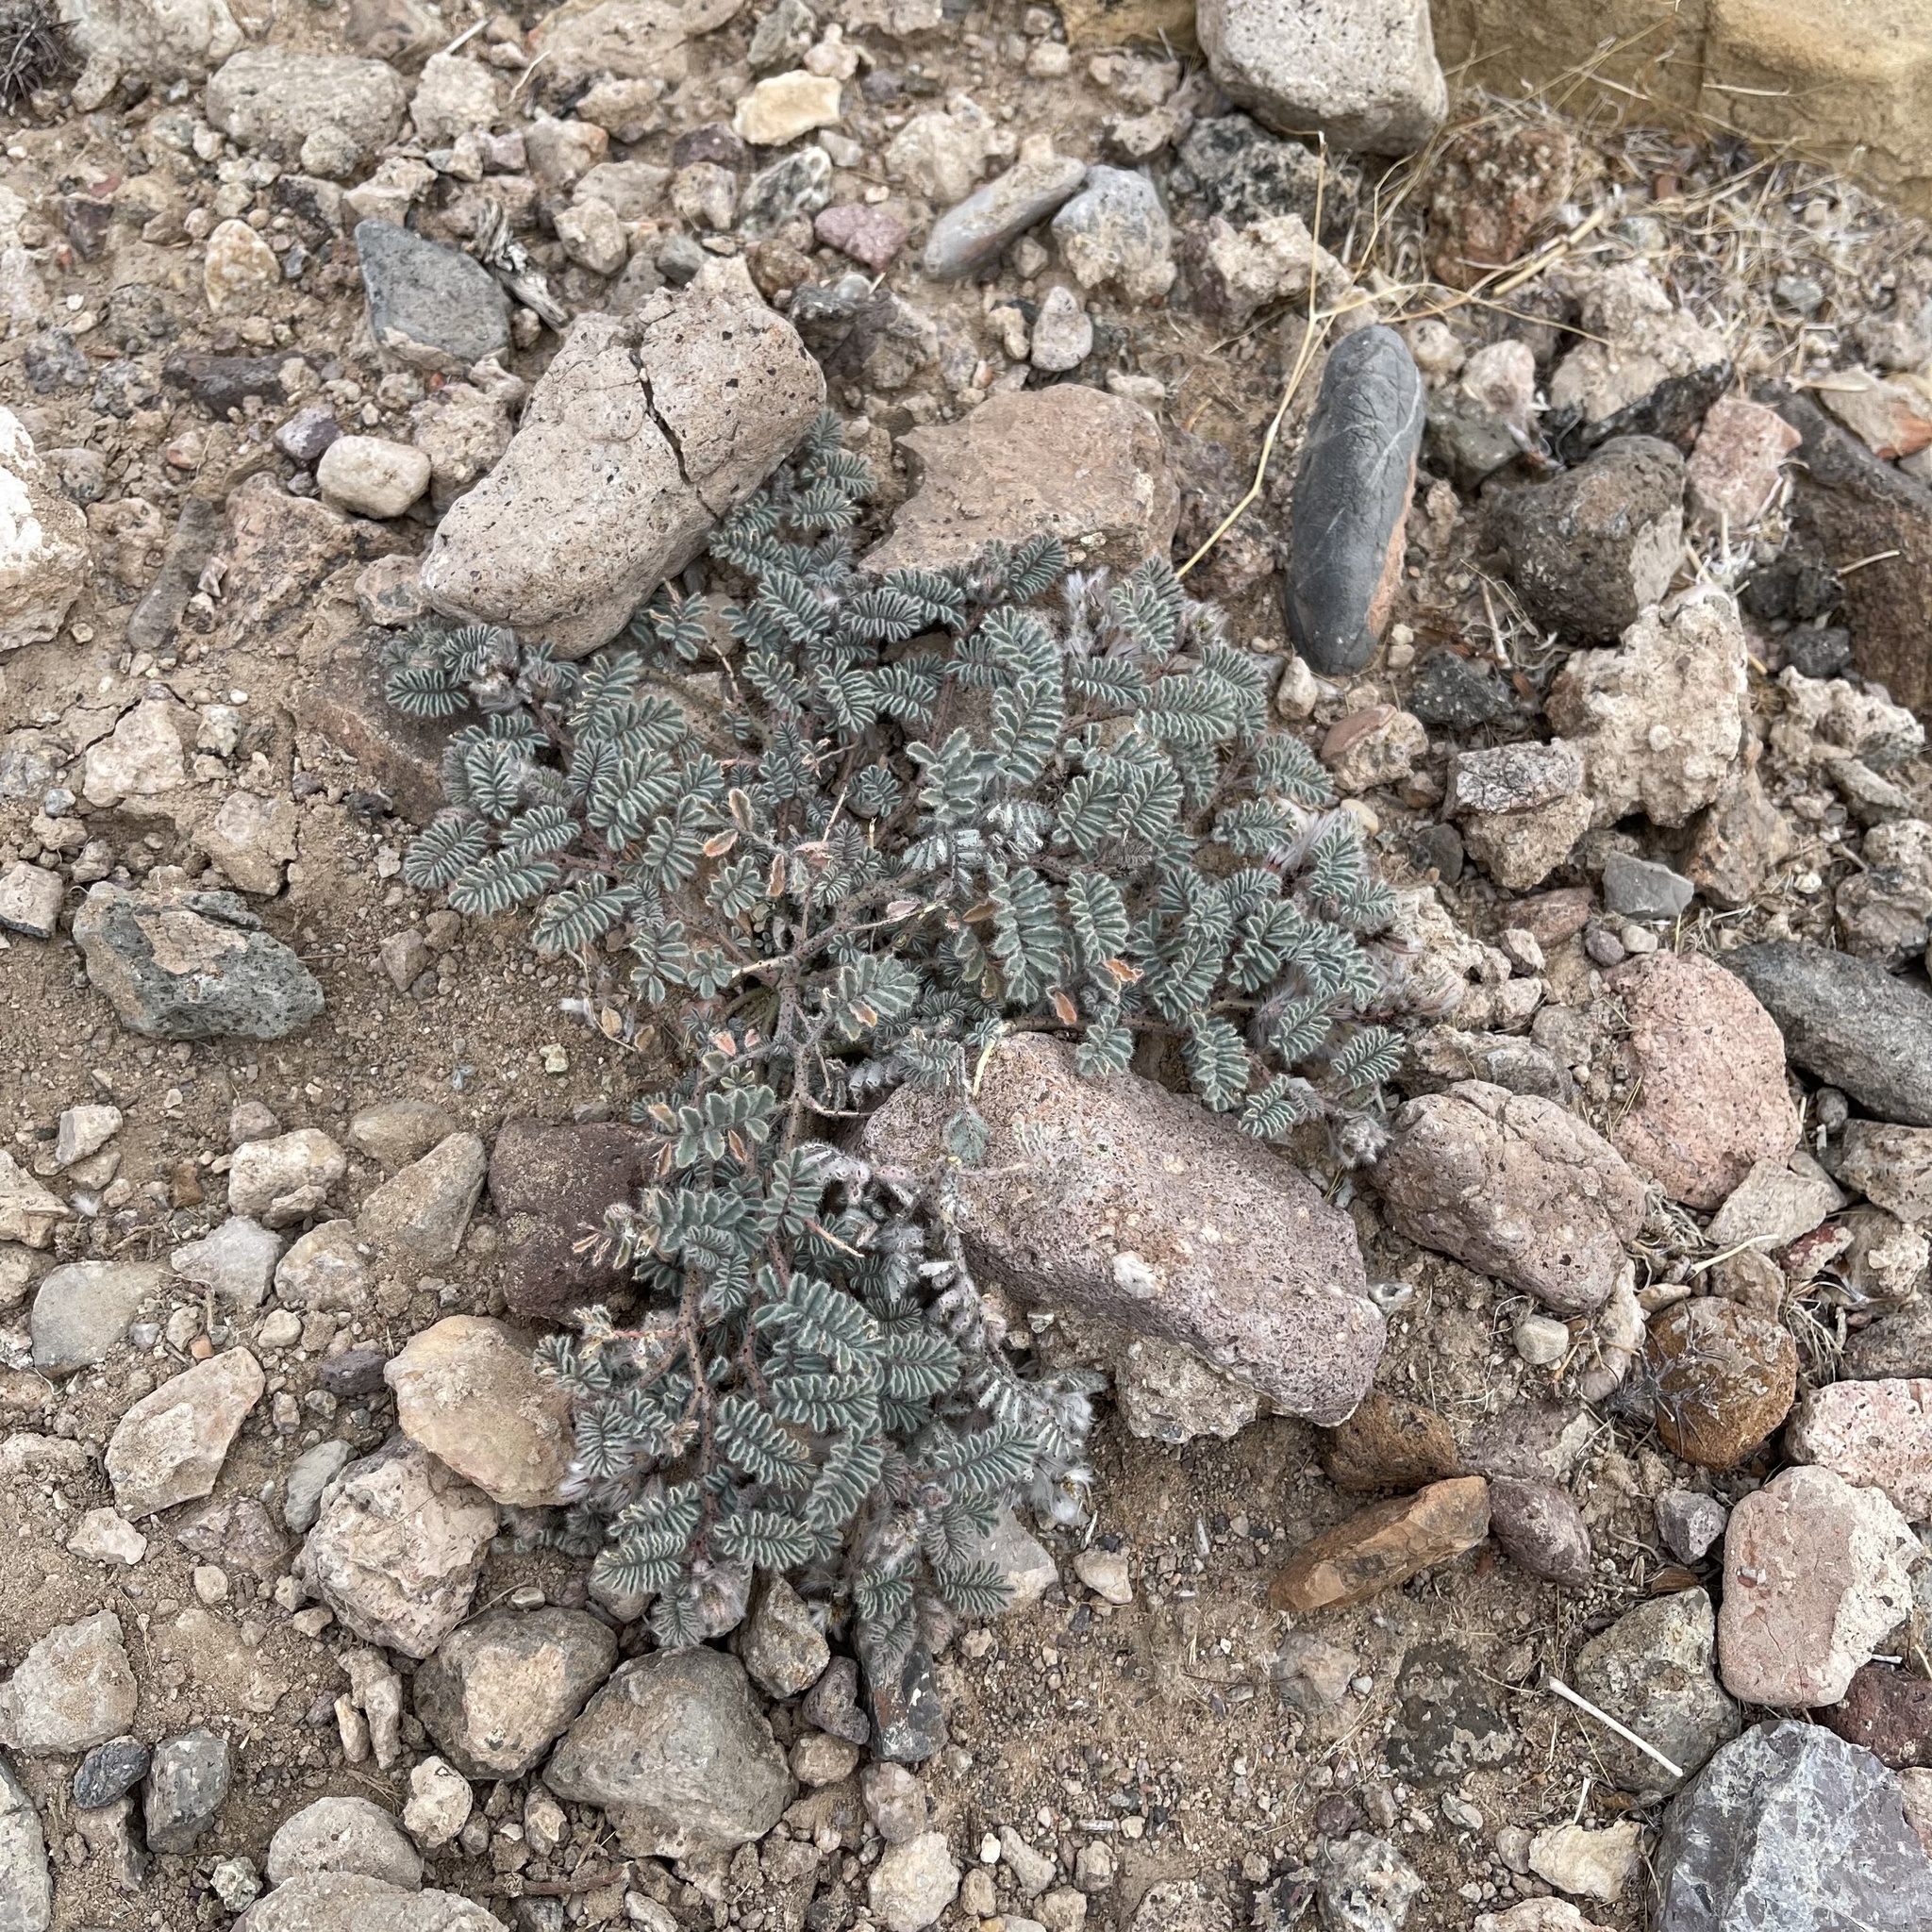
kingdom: Plantae
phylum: Tracheophyta
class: Magnoliopsida
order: Fabales
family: Fabaceae
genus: Dalea
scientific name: Dalea mollissima
